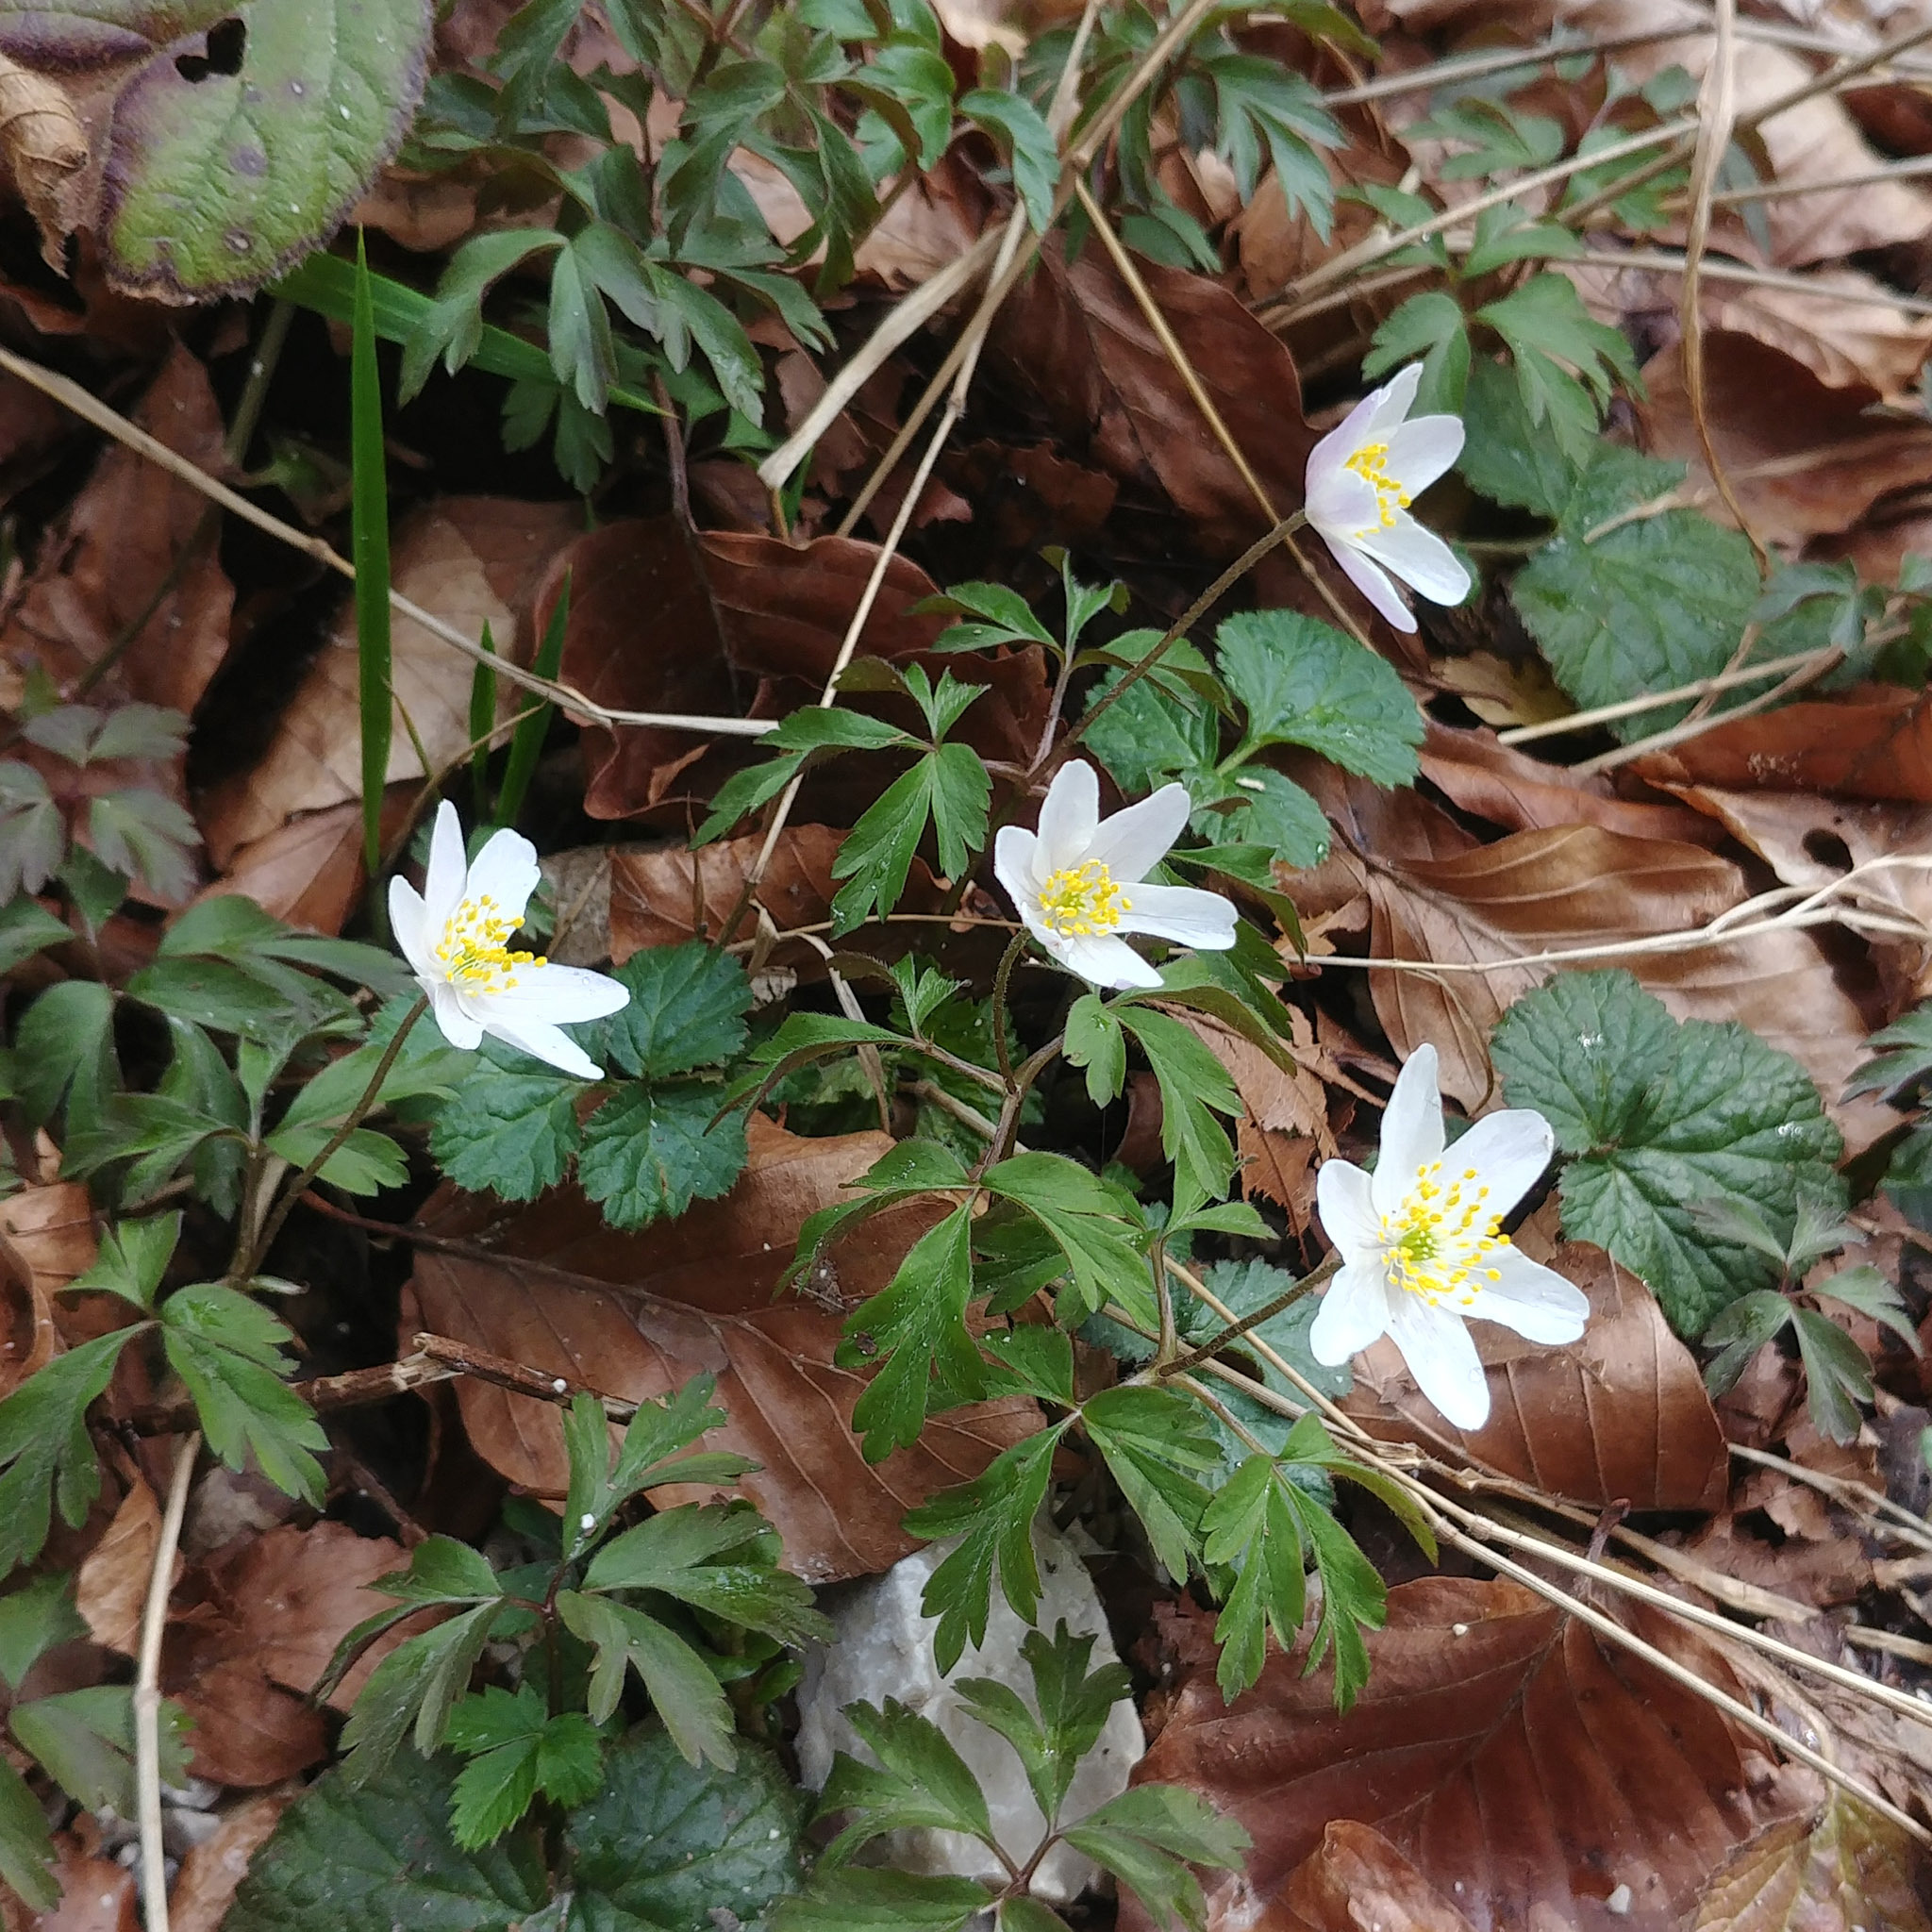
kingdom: Plantae
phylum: Tracheophyta
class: Magnoliopsida
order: Ranunculales
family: Ranunculaceae
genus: Anemone
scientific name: Anemone nemorosa
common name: Wood anemone
